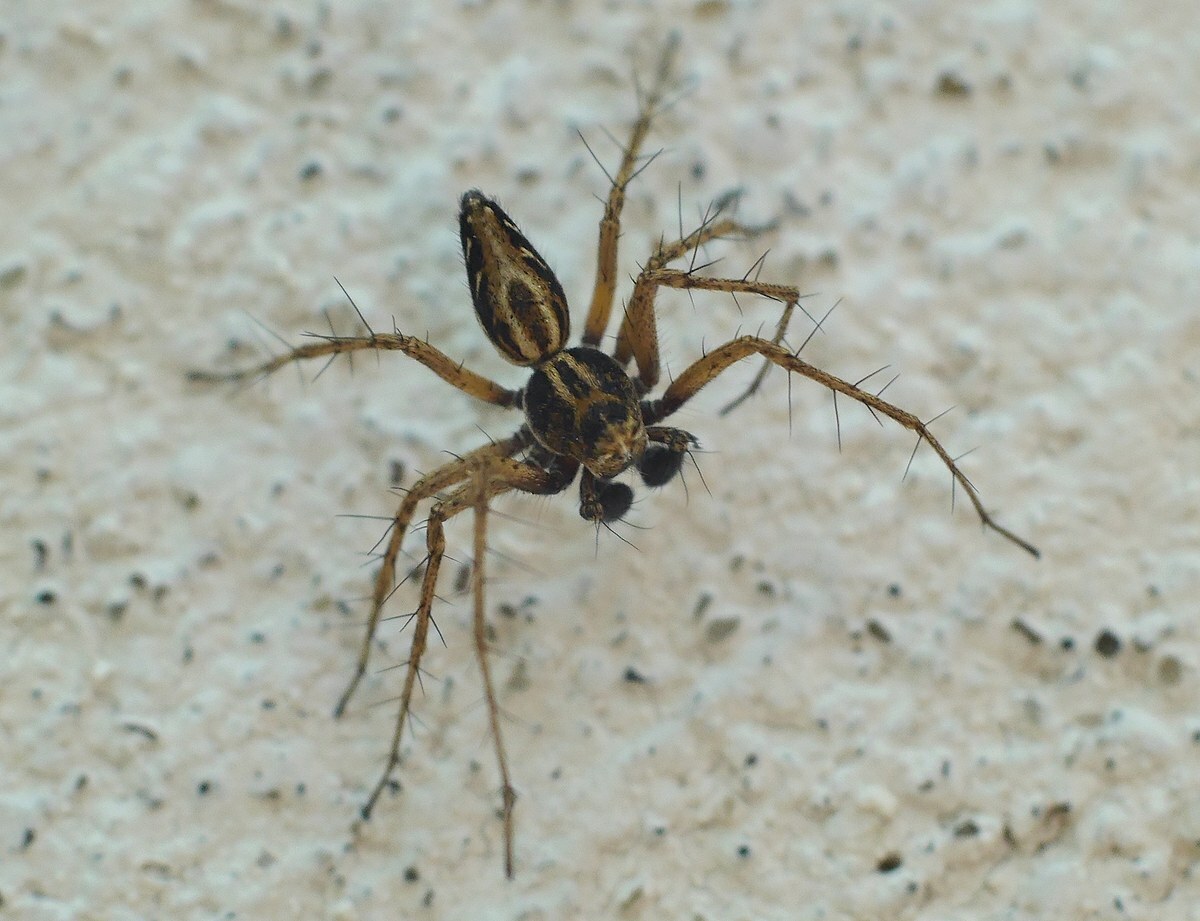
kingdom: Animalia
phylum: Arthropoda
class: Arachnida
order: Araneae
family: Oxyopidae
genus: Oxyopes
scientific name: Oxyopes heterophthalmus
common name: Lynx spider
